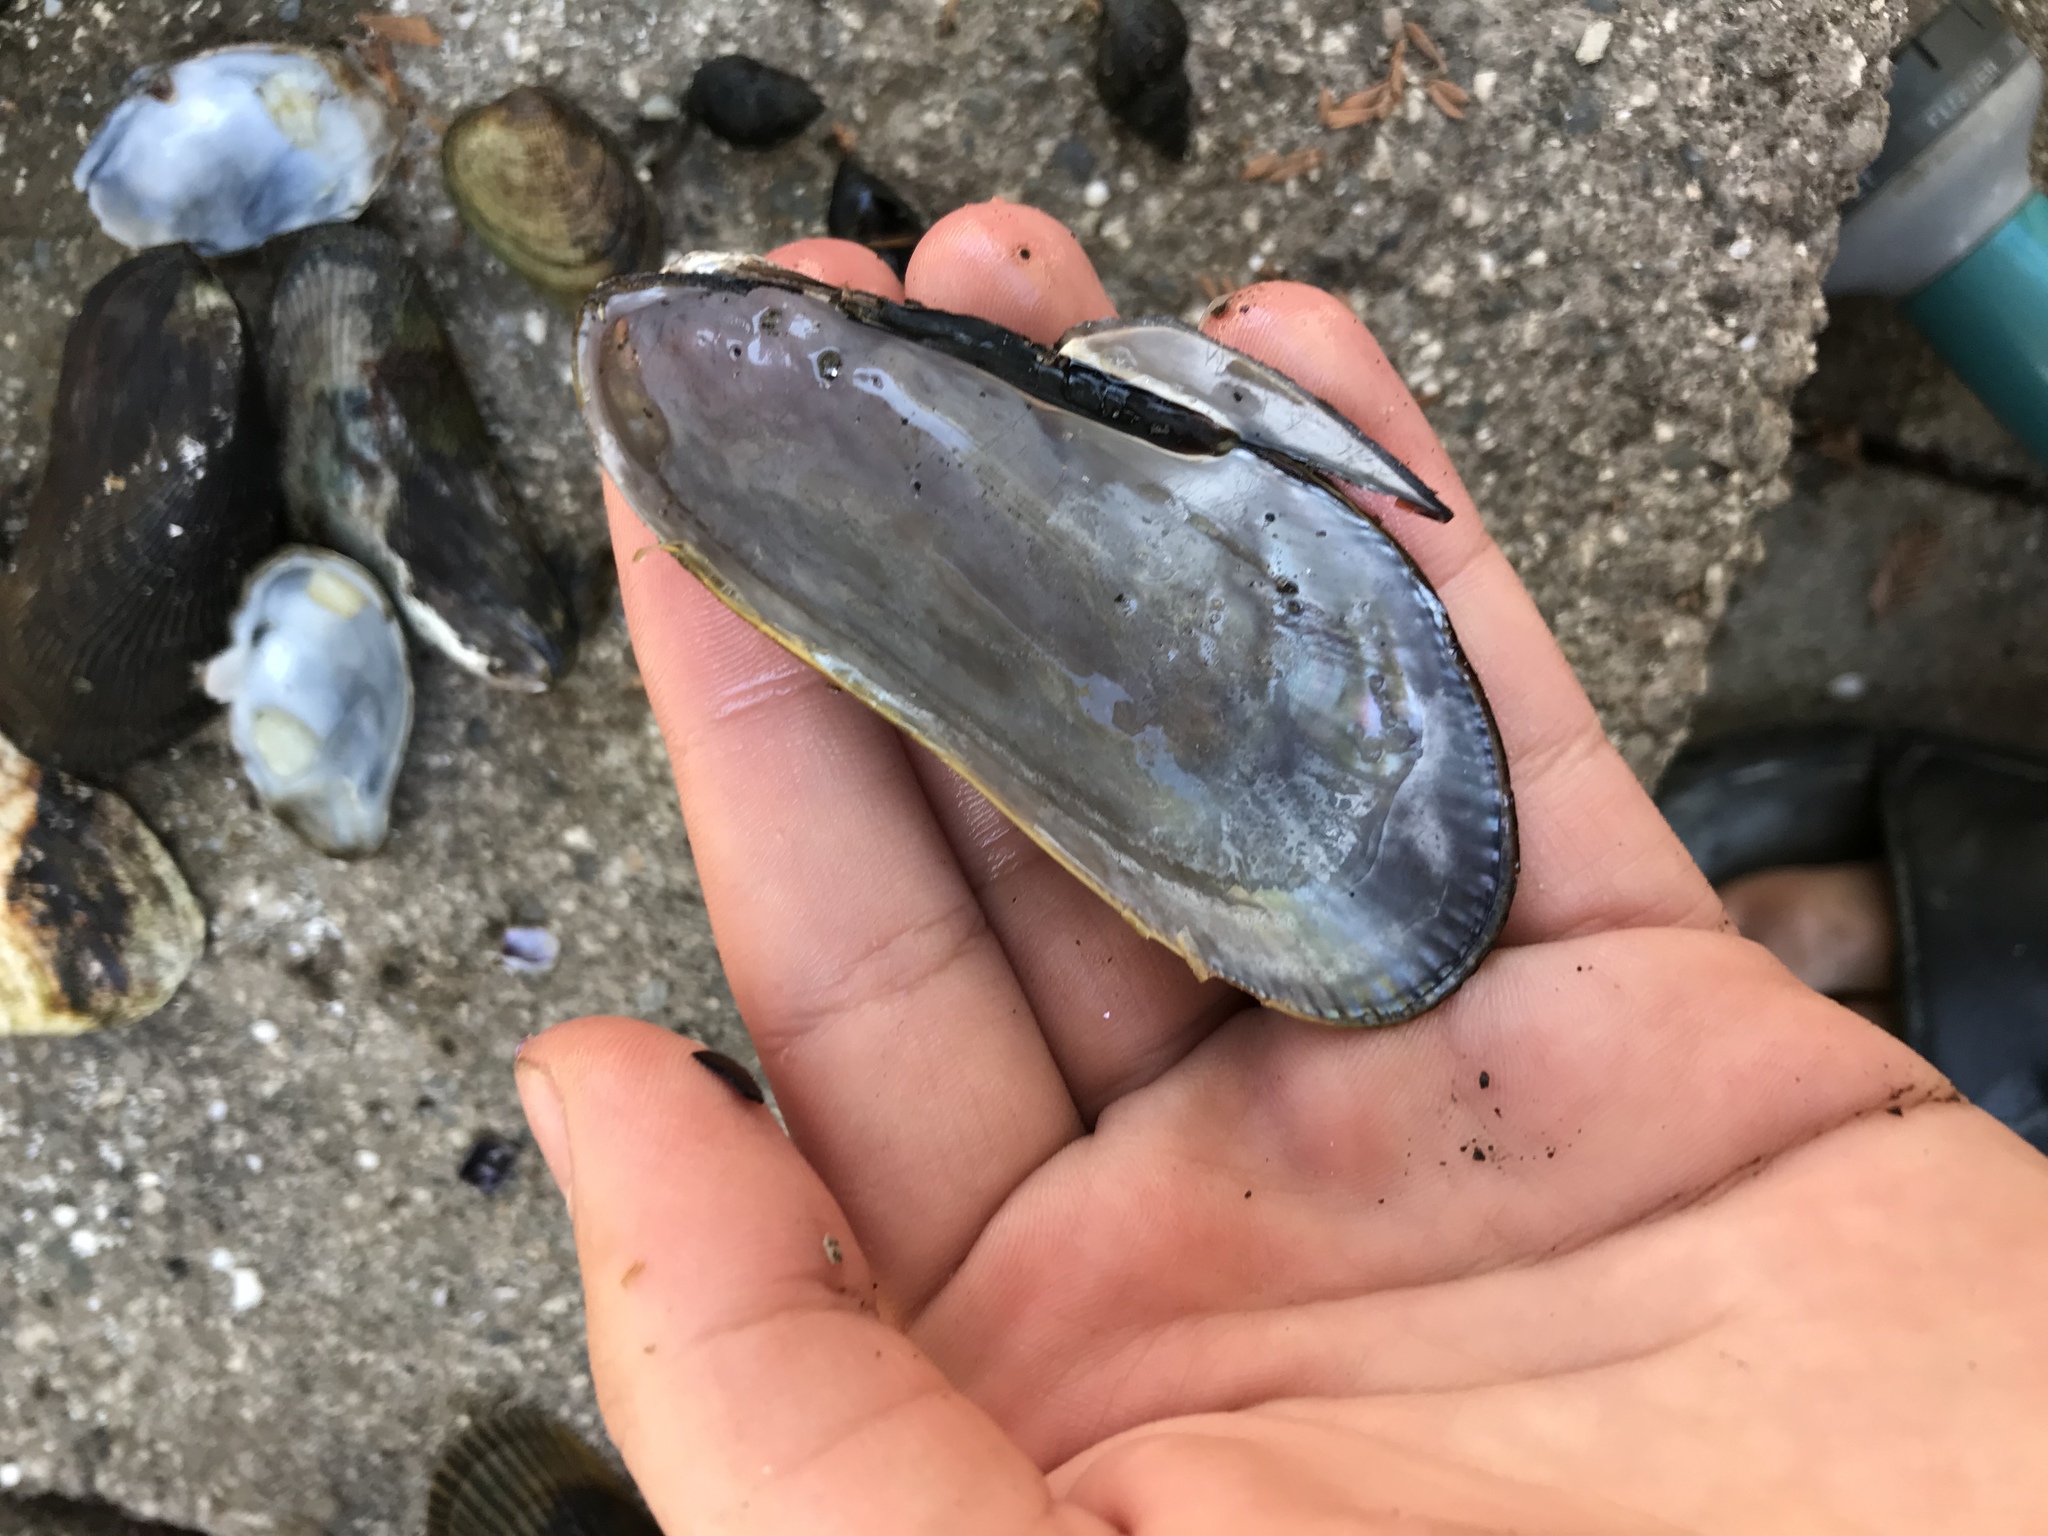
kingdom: Animalia
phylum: Mollusca
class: Bivalvia
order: Mytilida
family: Mytilidae
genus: Geukensia
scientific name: Geukensia demissa
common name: Ribbed mussel
